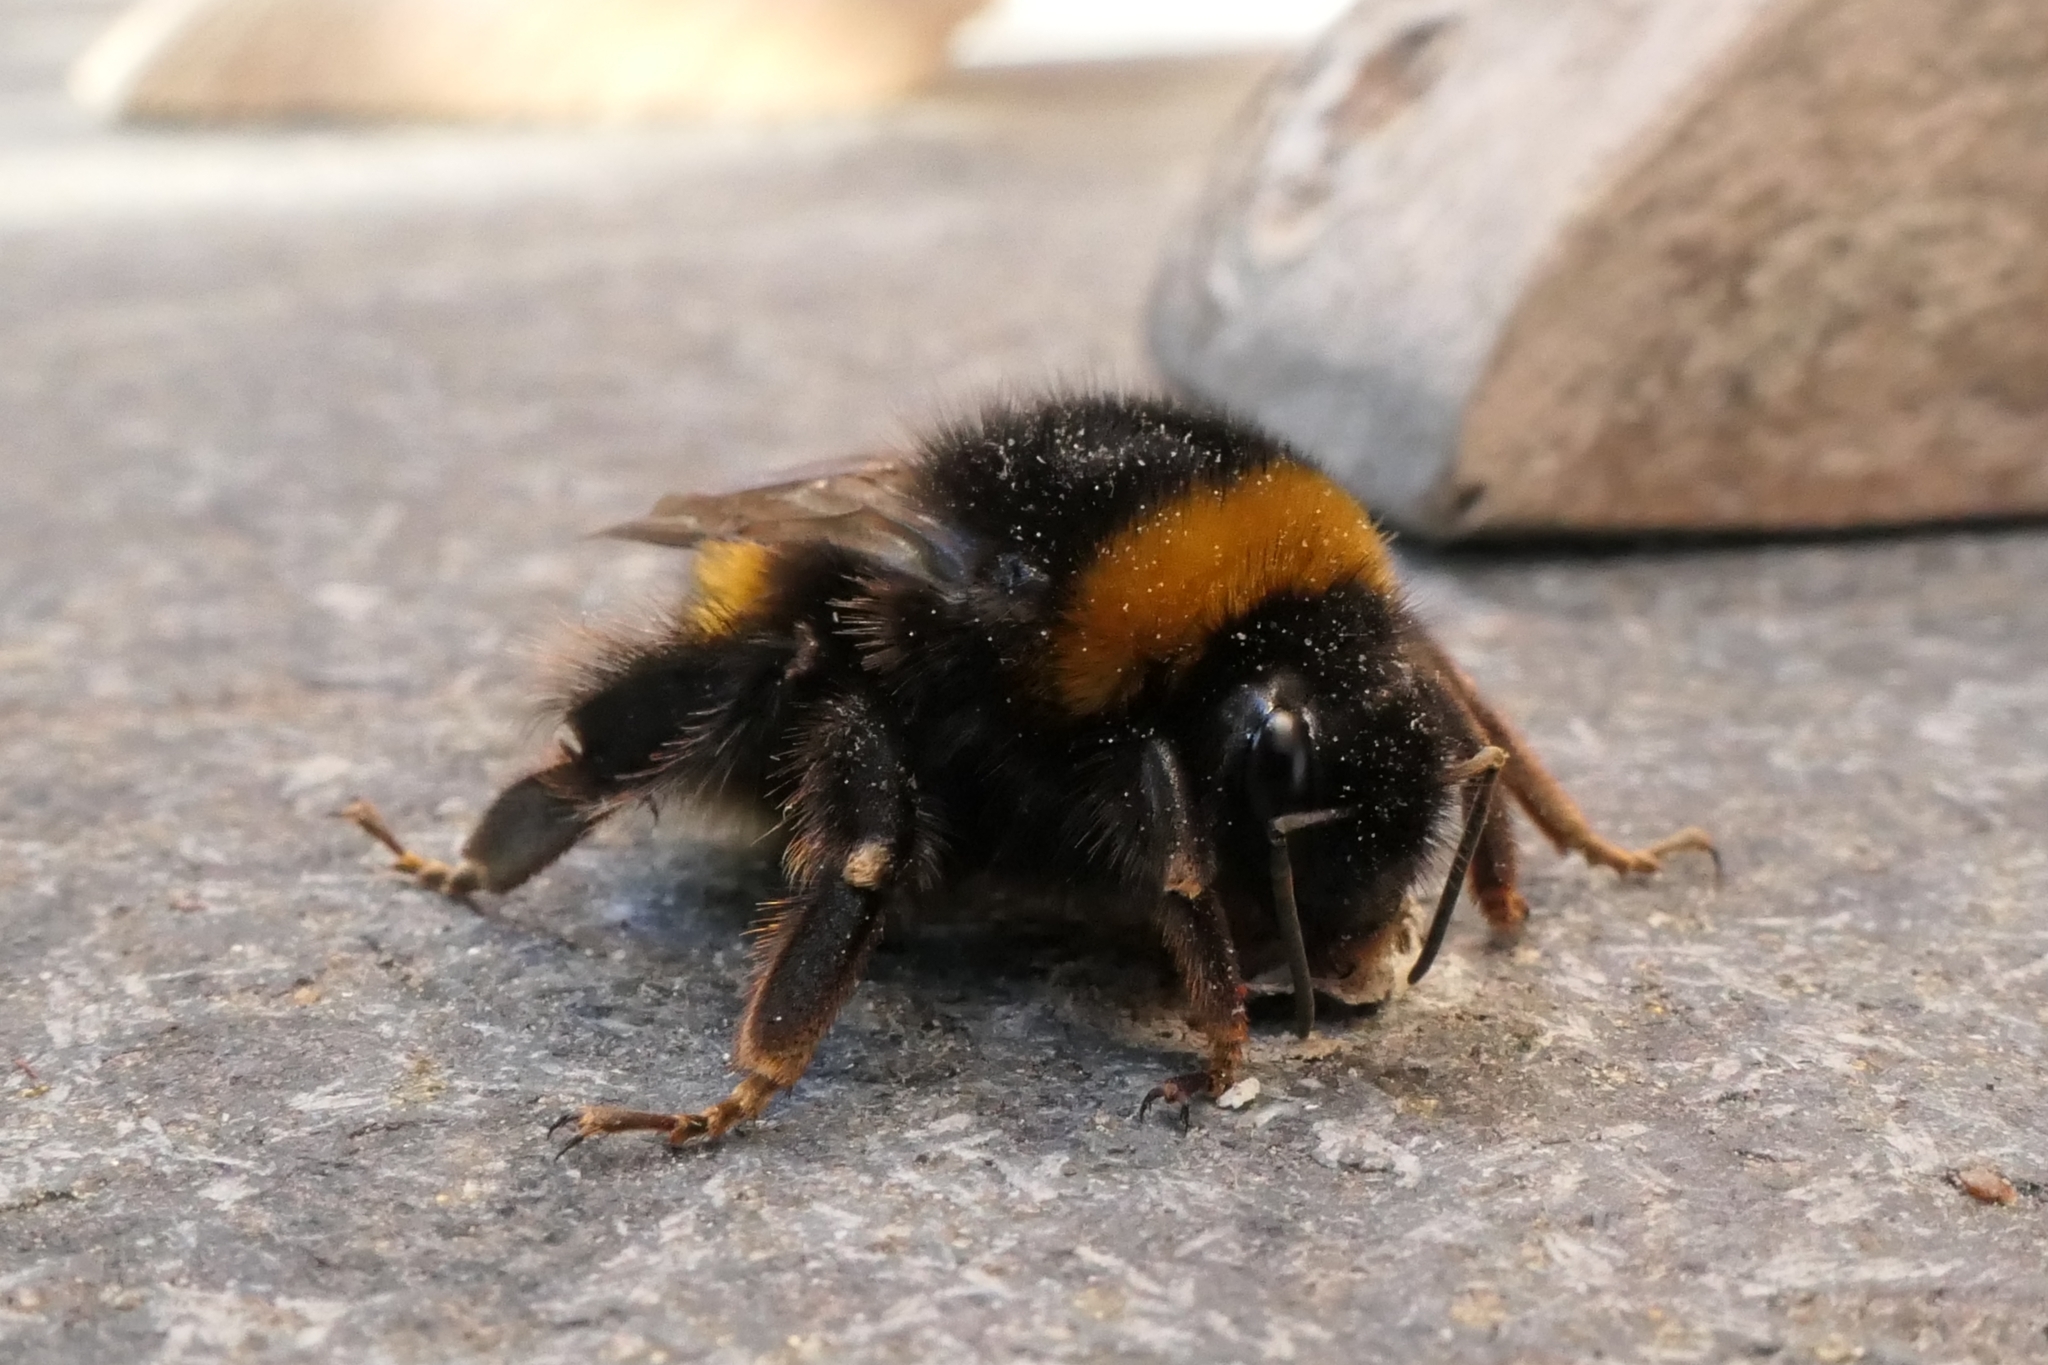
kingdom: Animalia
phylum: Arthropoda
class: Insecta
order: Hymenoptera
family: Apidae
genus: Bombus
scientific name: Bombus terrestris
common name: Buff-tailed bumblebee
